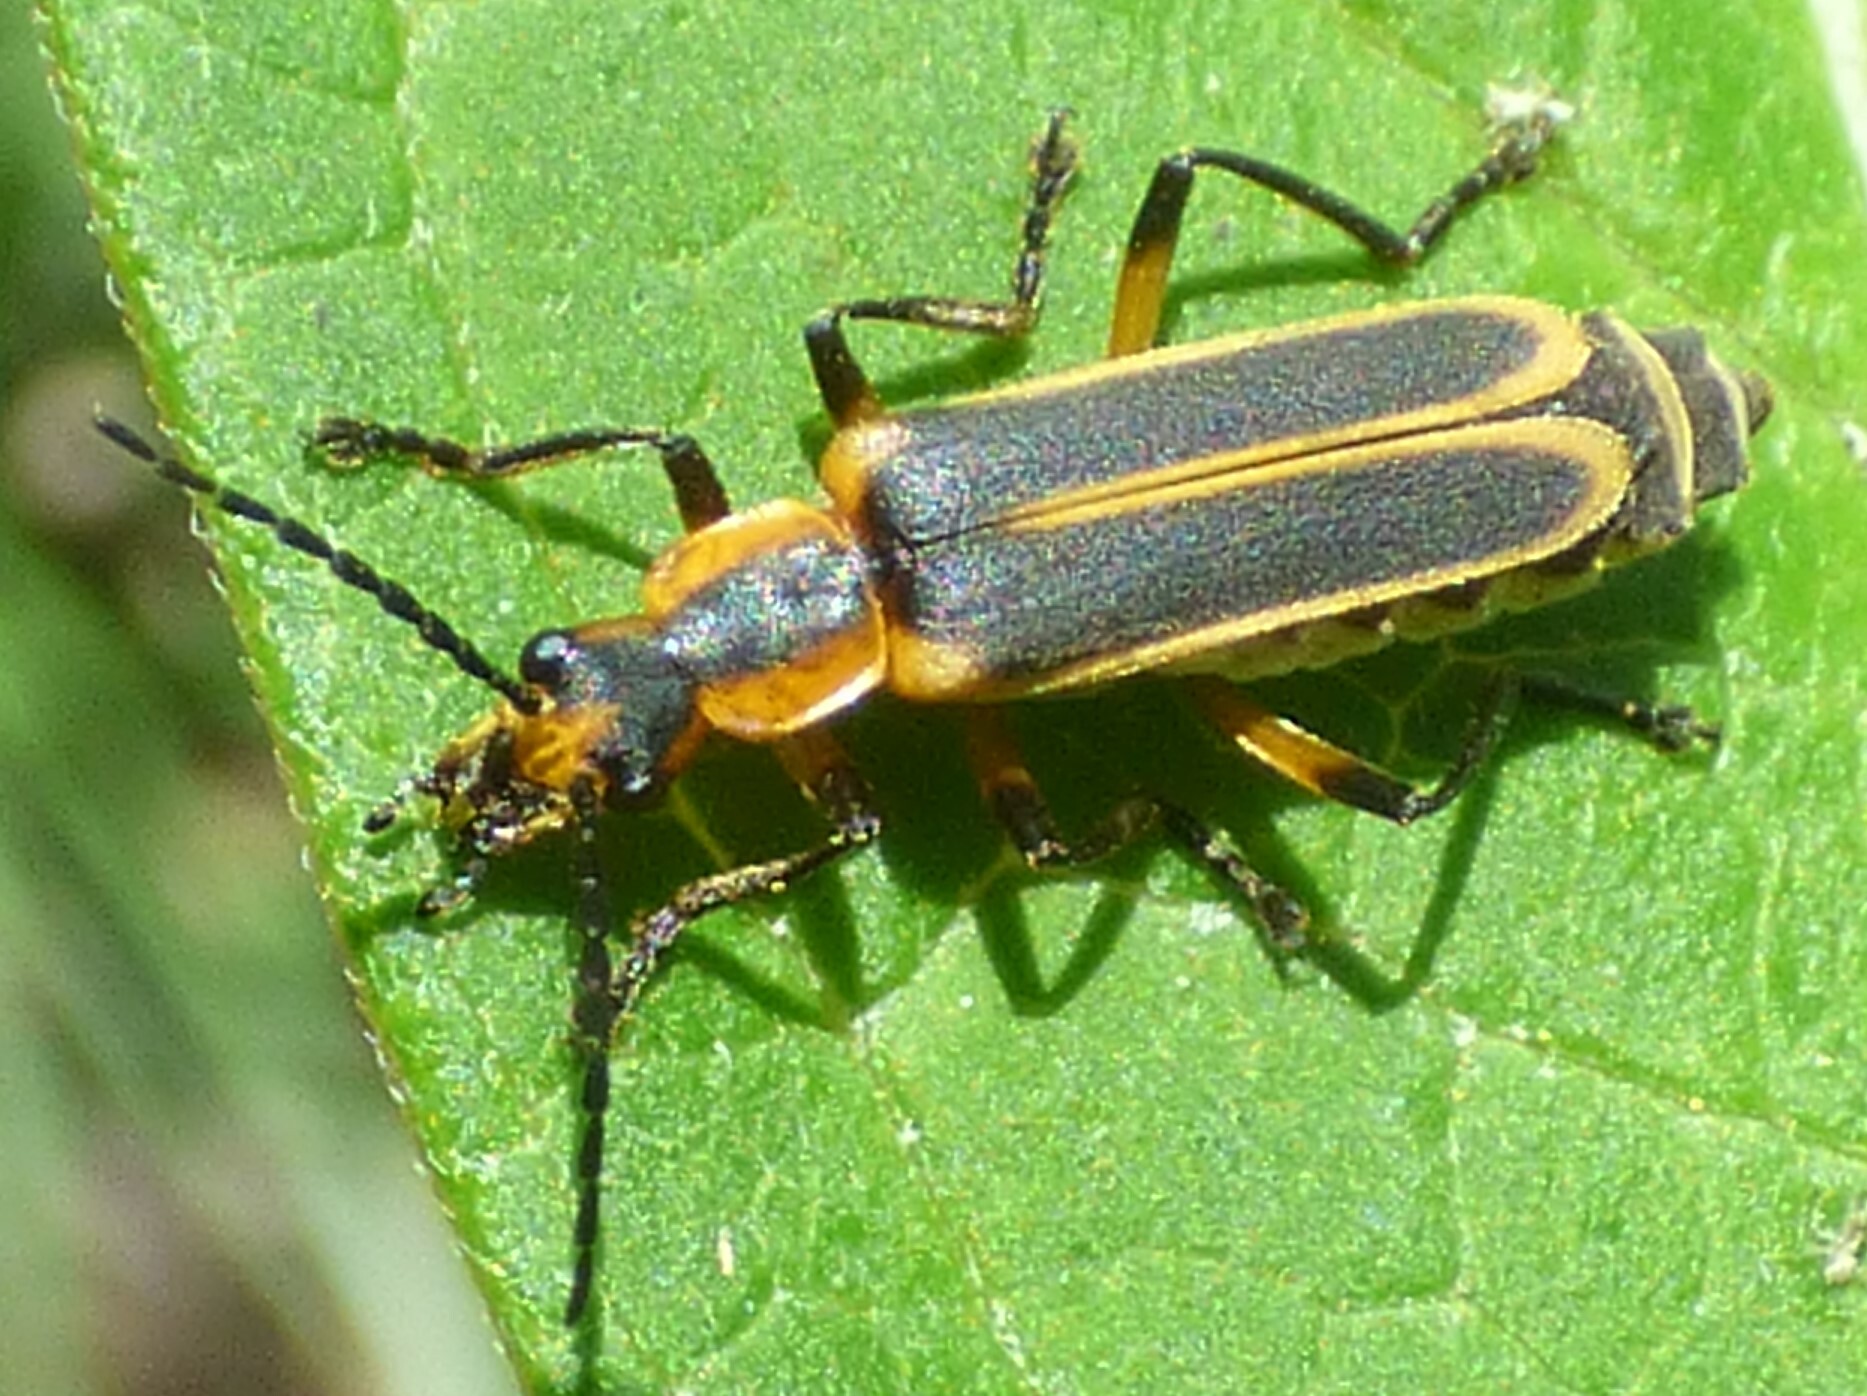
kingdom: Animalia
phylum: Arthropoda
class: Insecta
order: Coleoptera
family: Cantharidae
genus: Chauliognathus
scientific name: Chauliognathus marginatus
